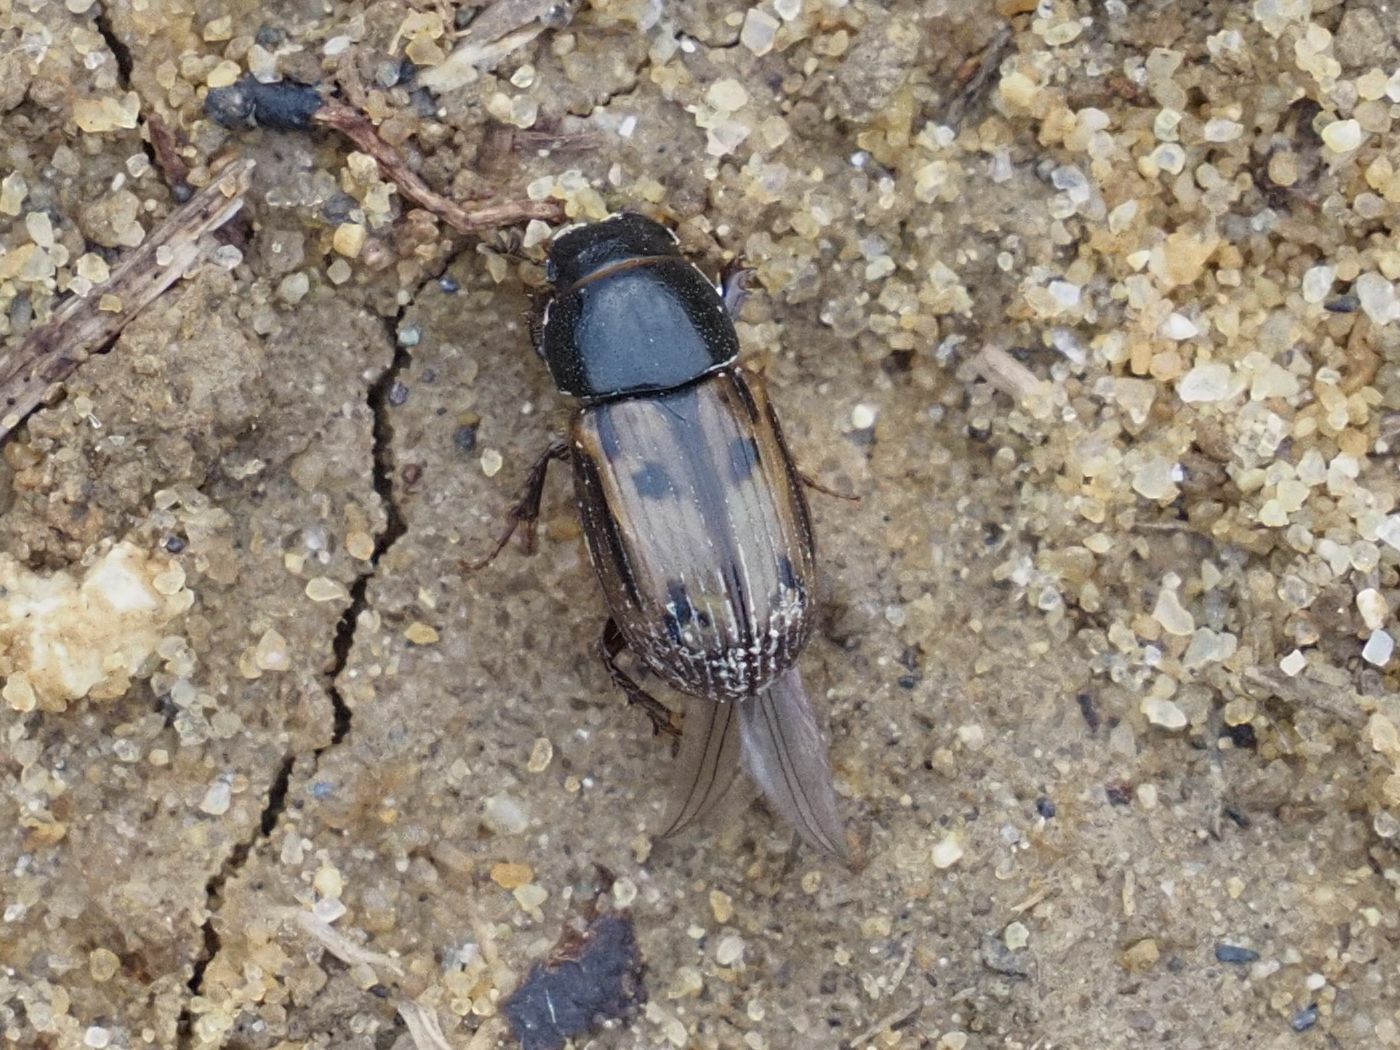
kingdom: Animalia
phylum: Arthropoda
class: Insecta
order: Coleoptera
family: Scarabaeidae
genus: Chilothorax
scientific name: Chilothorax distinctus
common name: Maculated dung beetle
